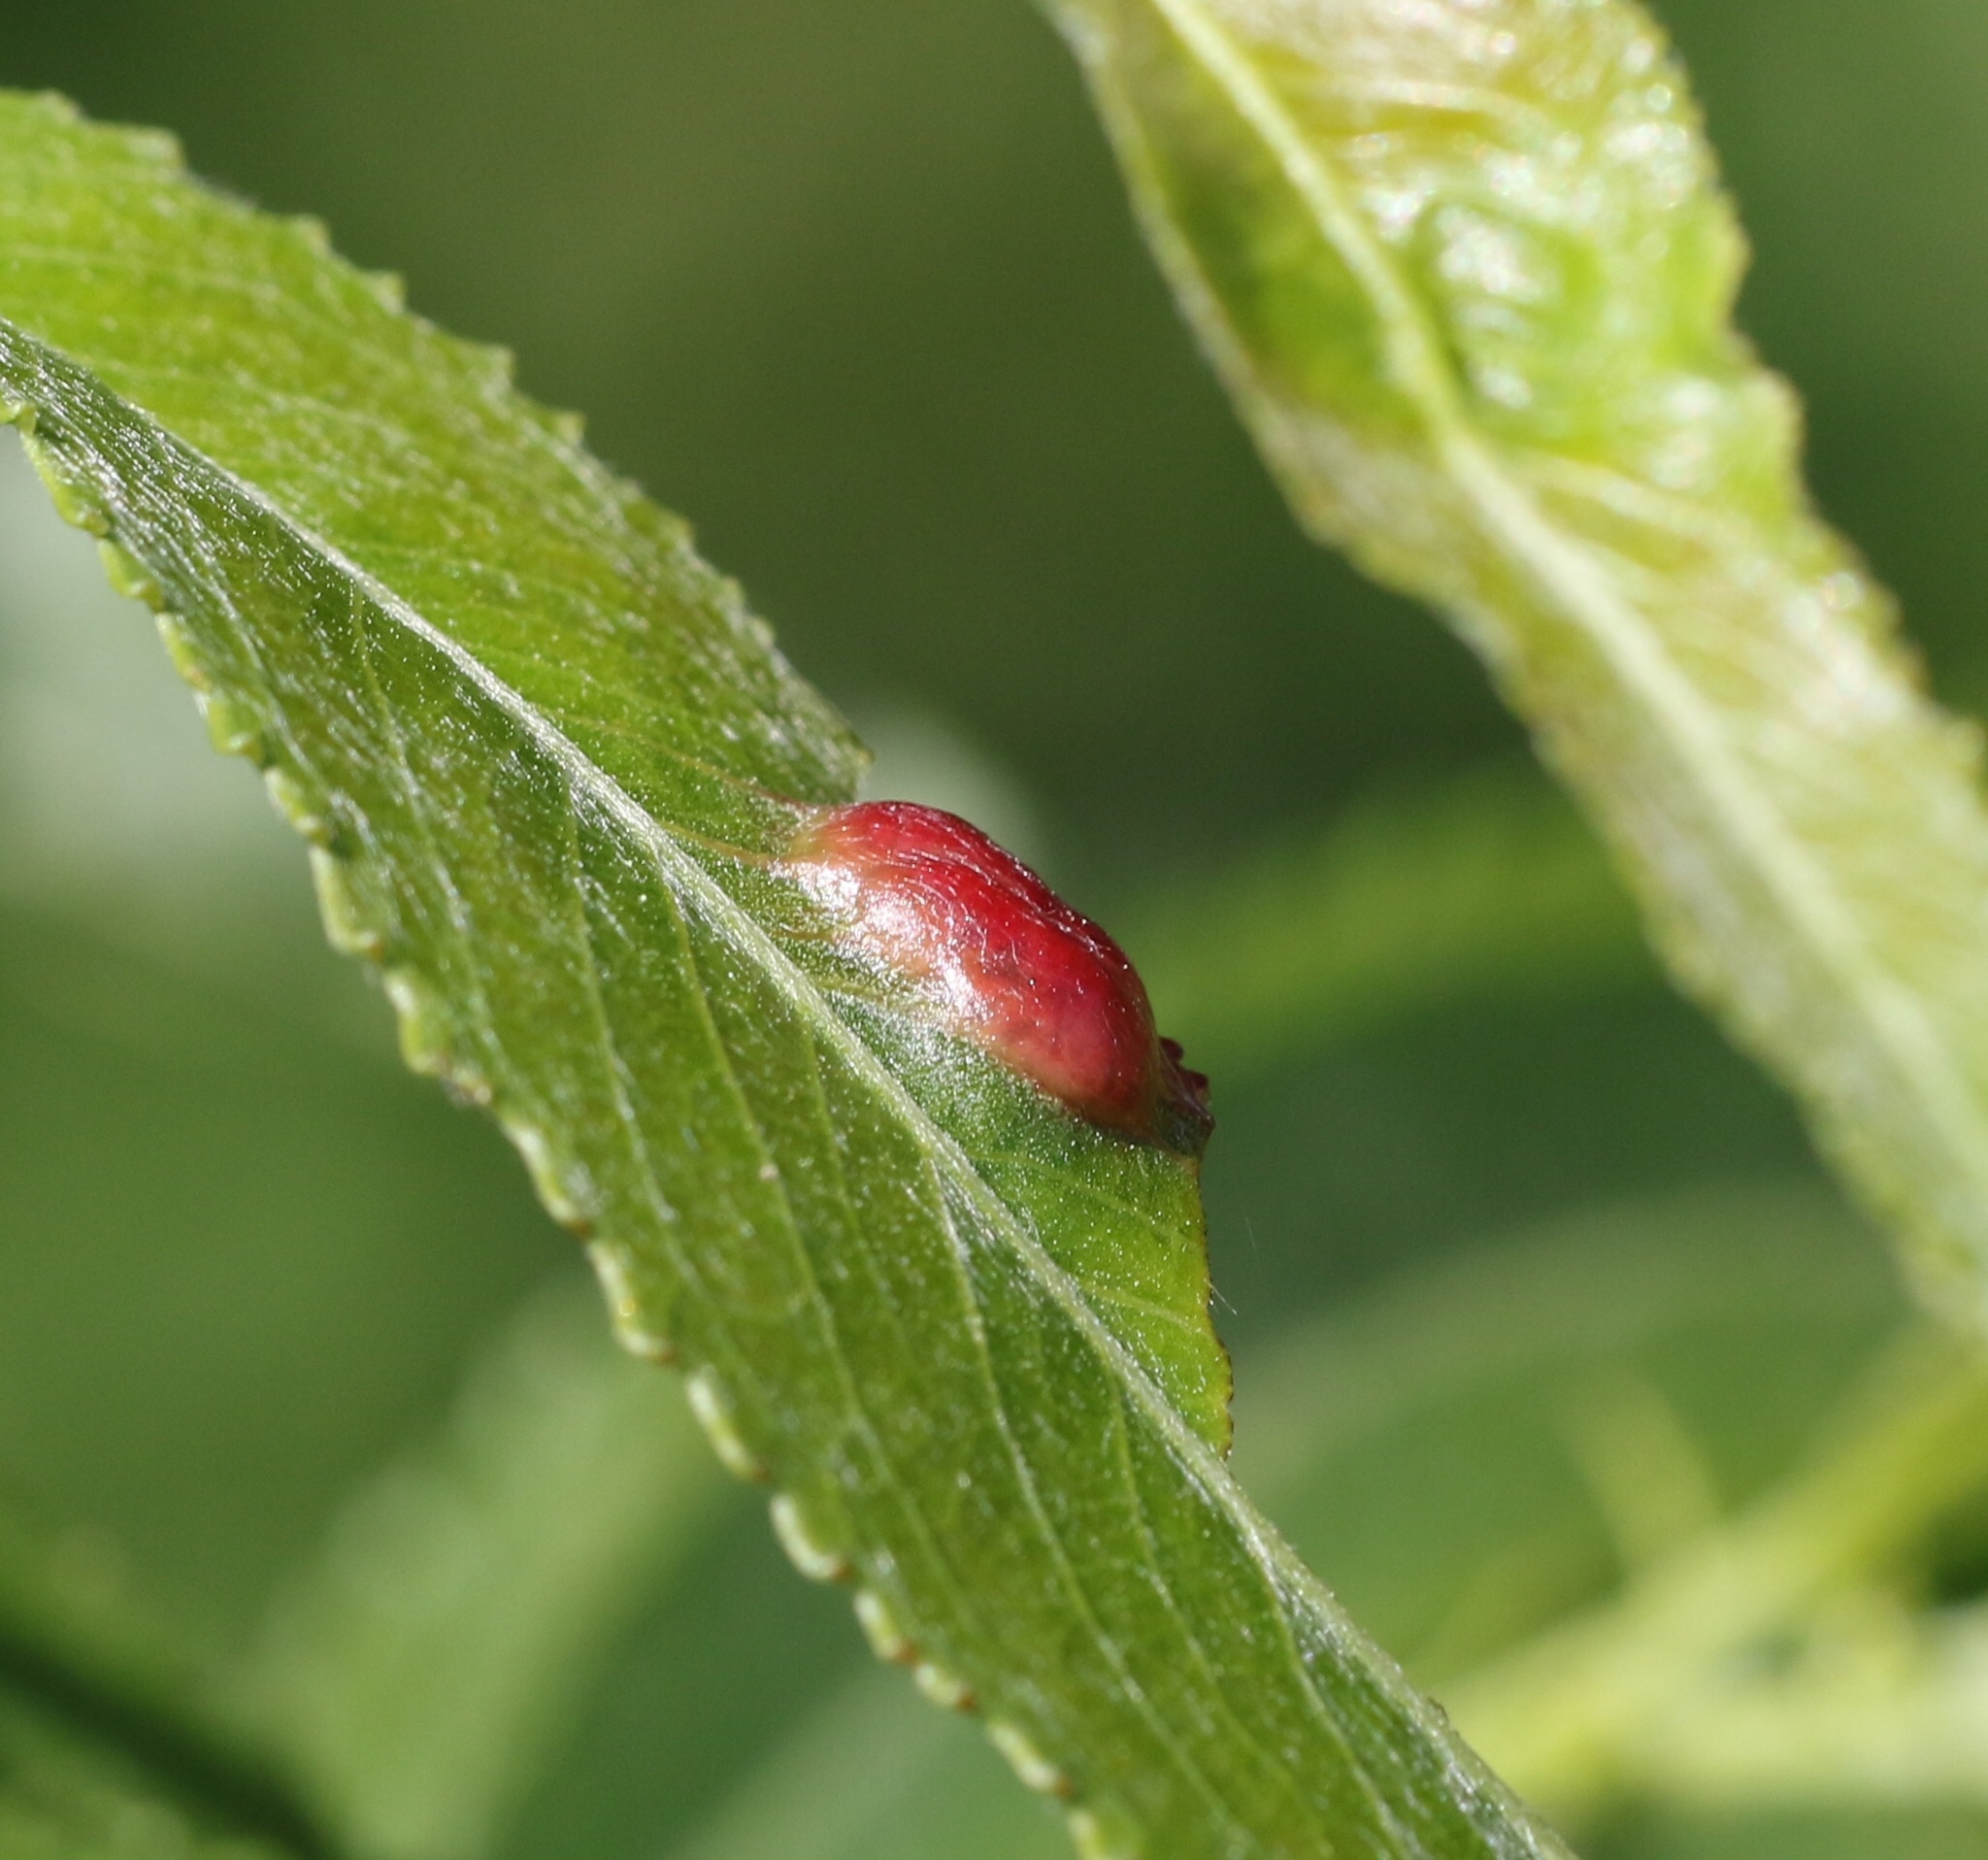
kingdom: Animalia
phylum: Arthropoda
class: Insecta
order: Hymenoptera
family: Tenthredinidae
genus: Pontania
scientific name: Pontania proxima
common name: Common sawfly
